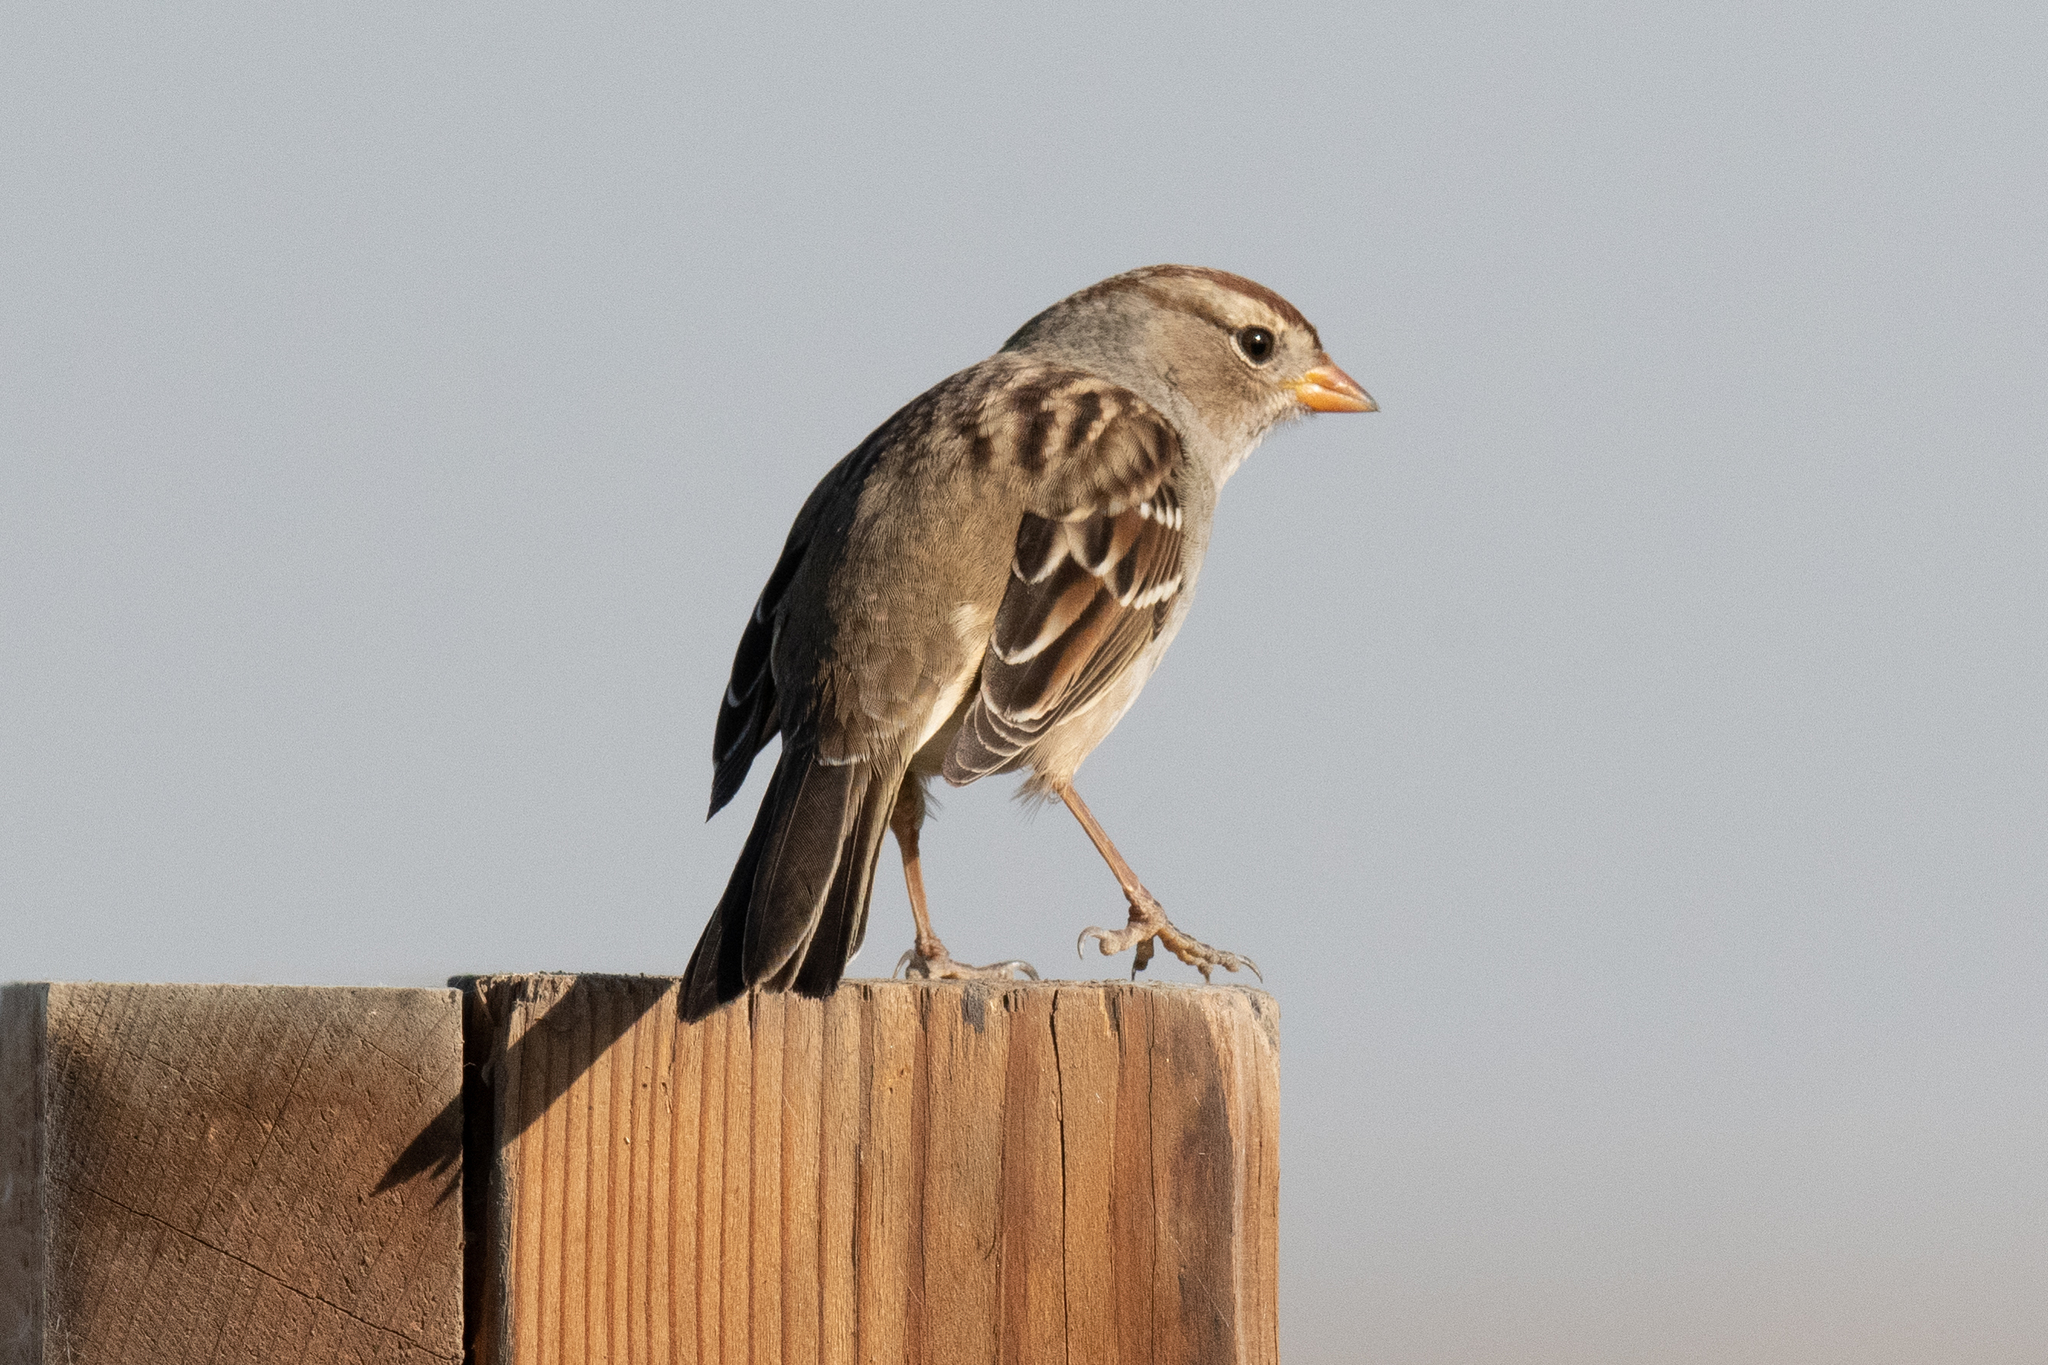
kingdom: Animalia
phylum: Chordata
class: Aves
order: Passeriformes
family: Passerellidae
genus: Zonotrichia
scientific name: Zonotrichia leucophrys
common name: White-crowned sparrow
